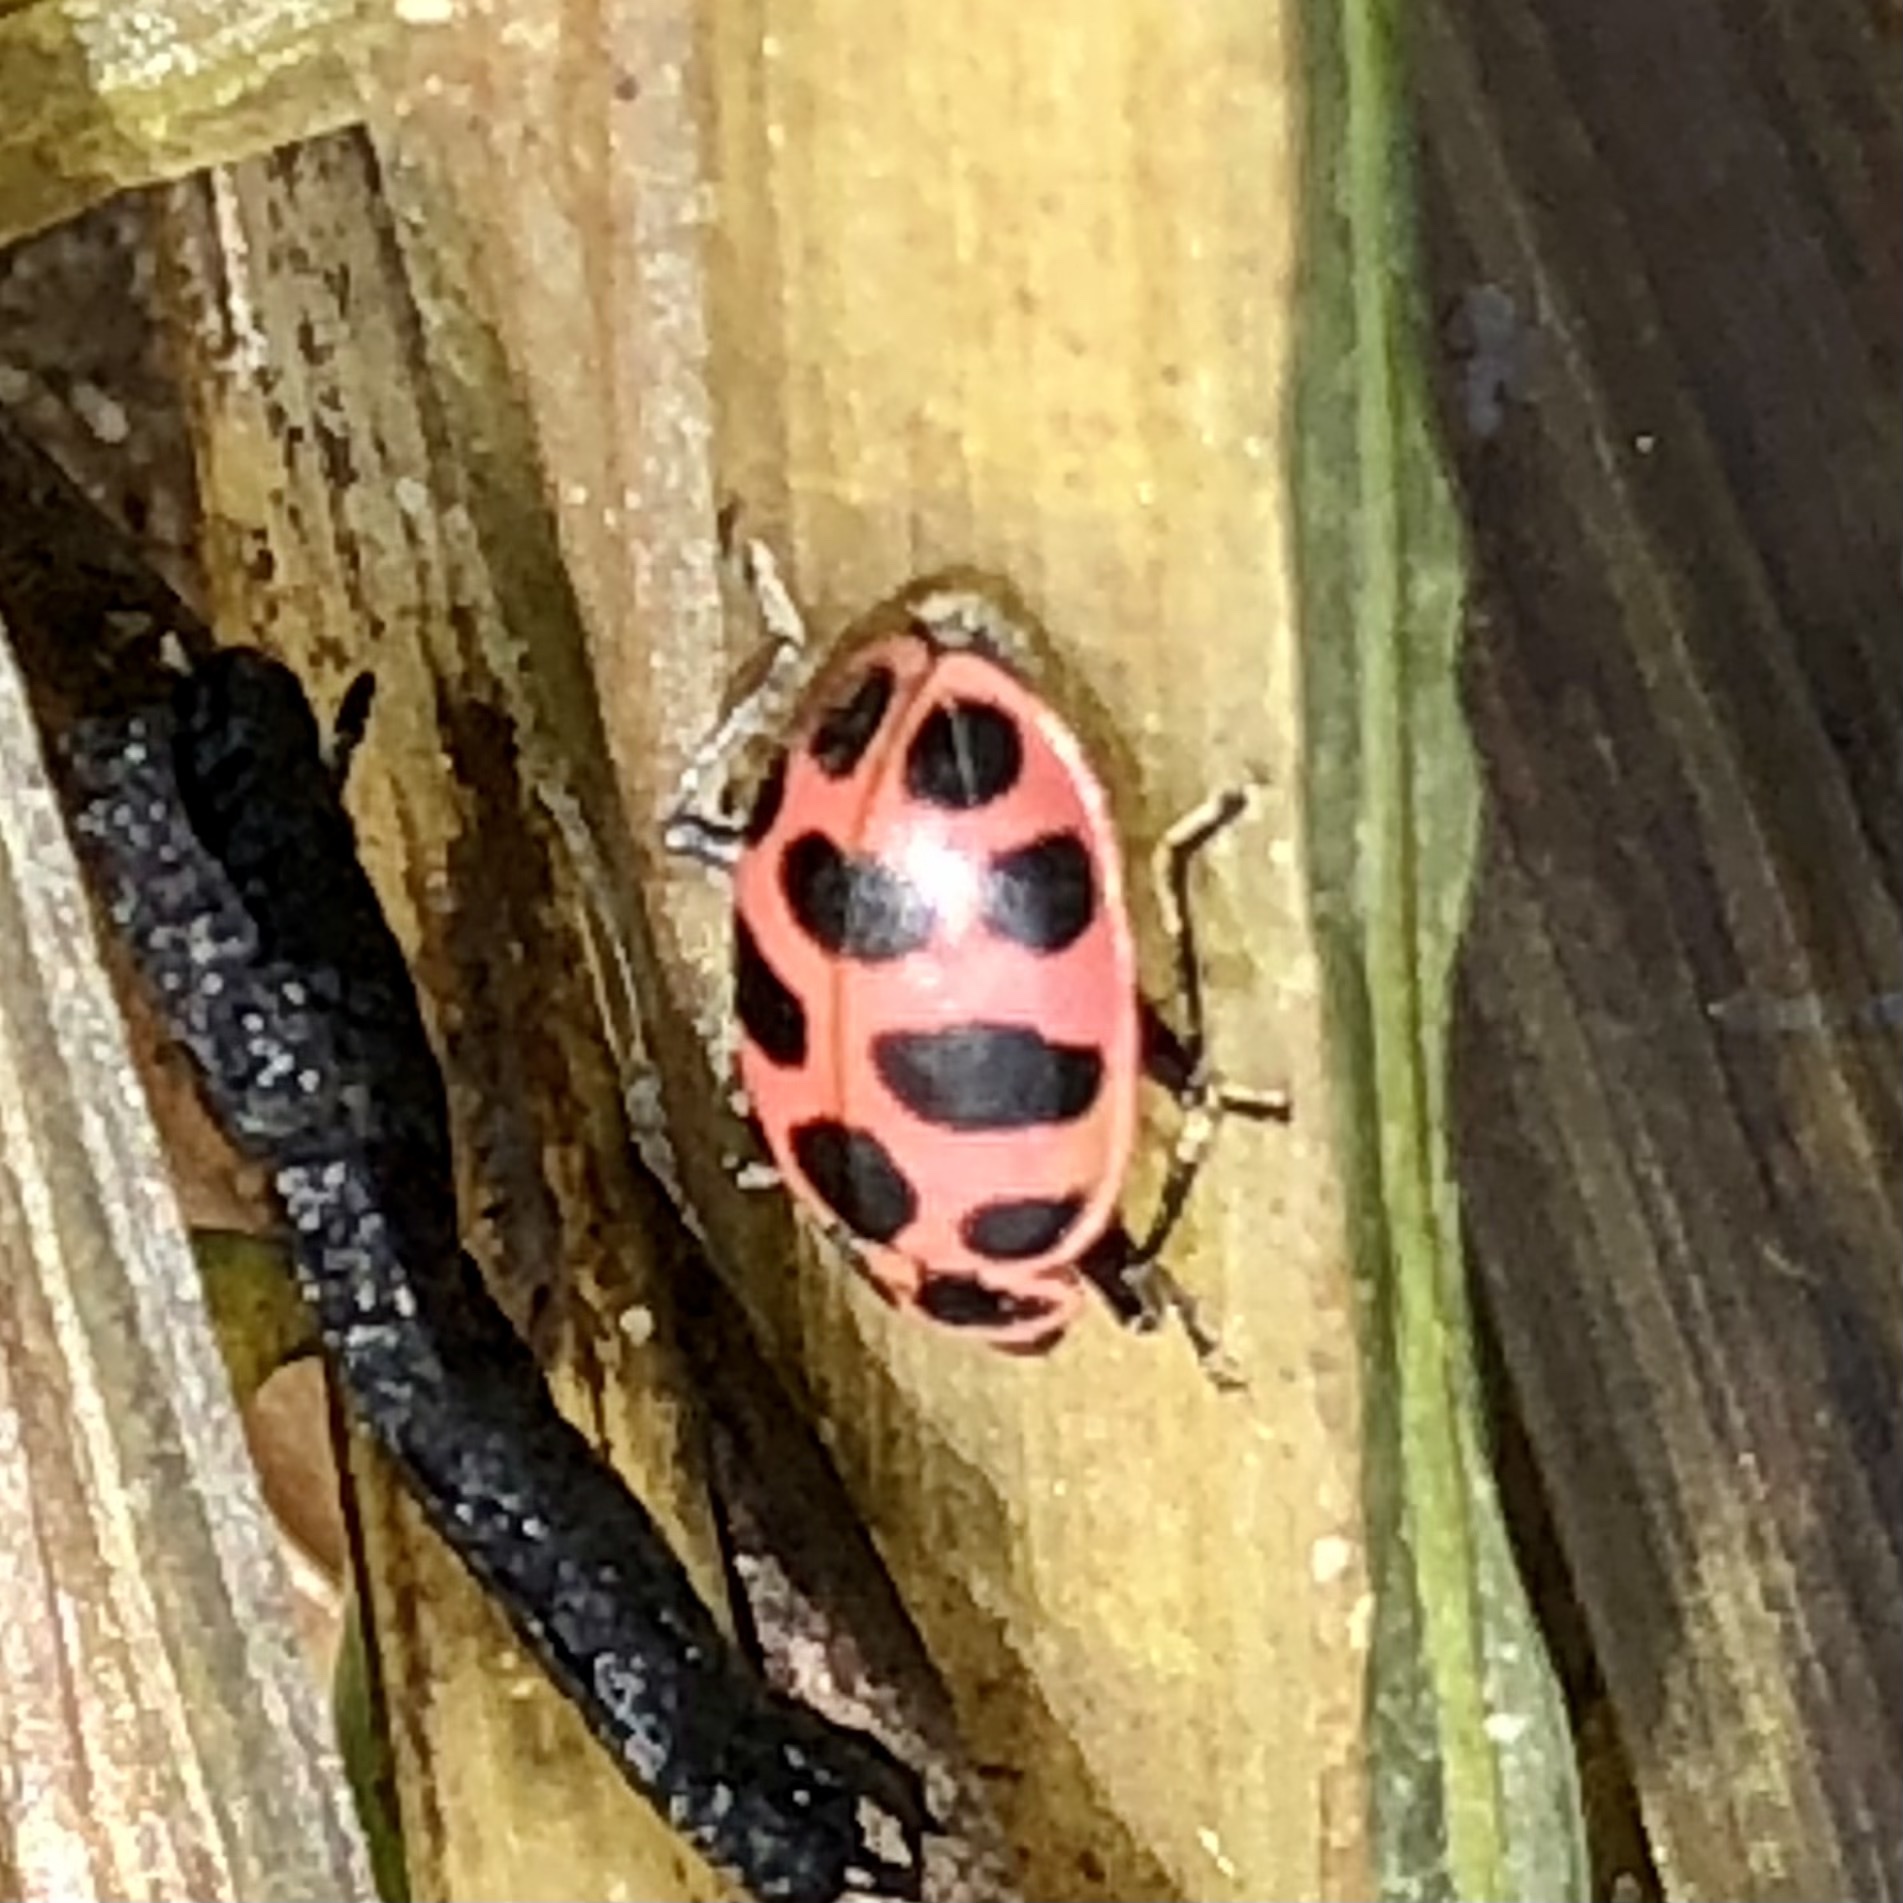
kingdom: Animalia
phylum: Arthropoda
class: Insecta
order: Coleoptera
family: Coccinellidae
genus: Coleomegilla
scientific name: Coleomegilla maculata
